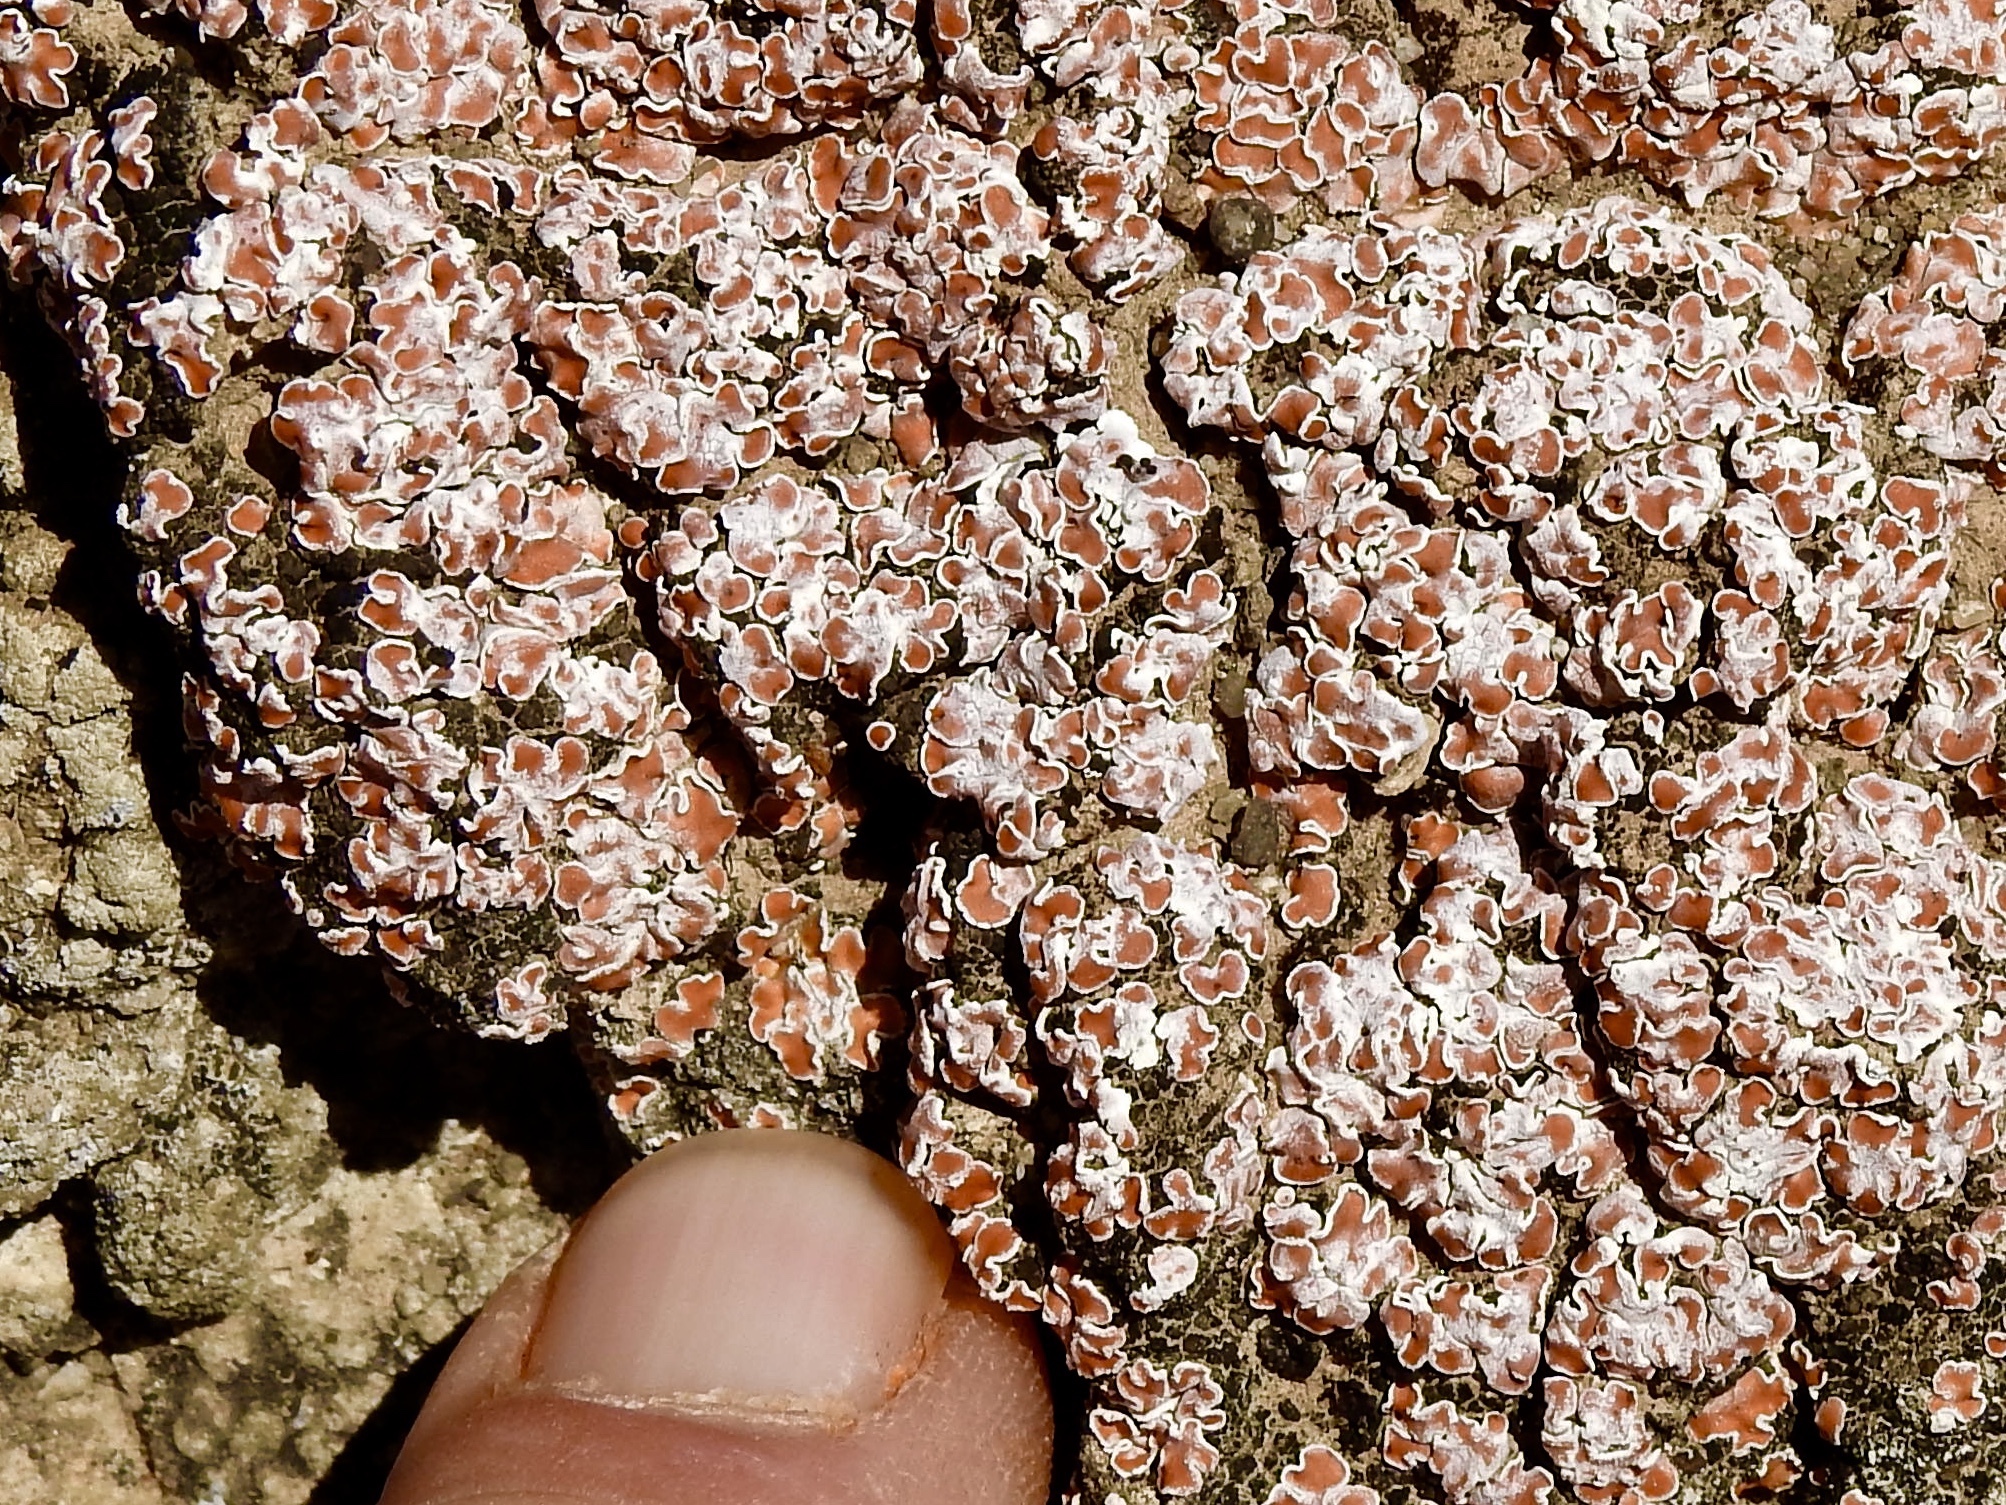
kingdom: Fungi
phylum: Ascomycota
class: Lecanoromycetes
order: Lecanorales
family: Psoraceae
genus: Psora
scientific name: Psora decipiens
